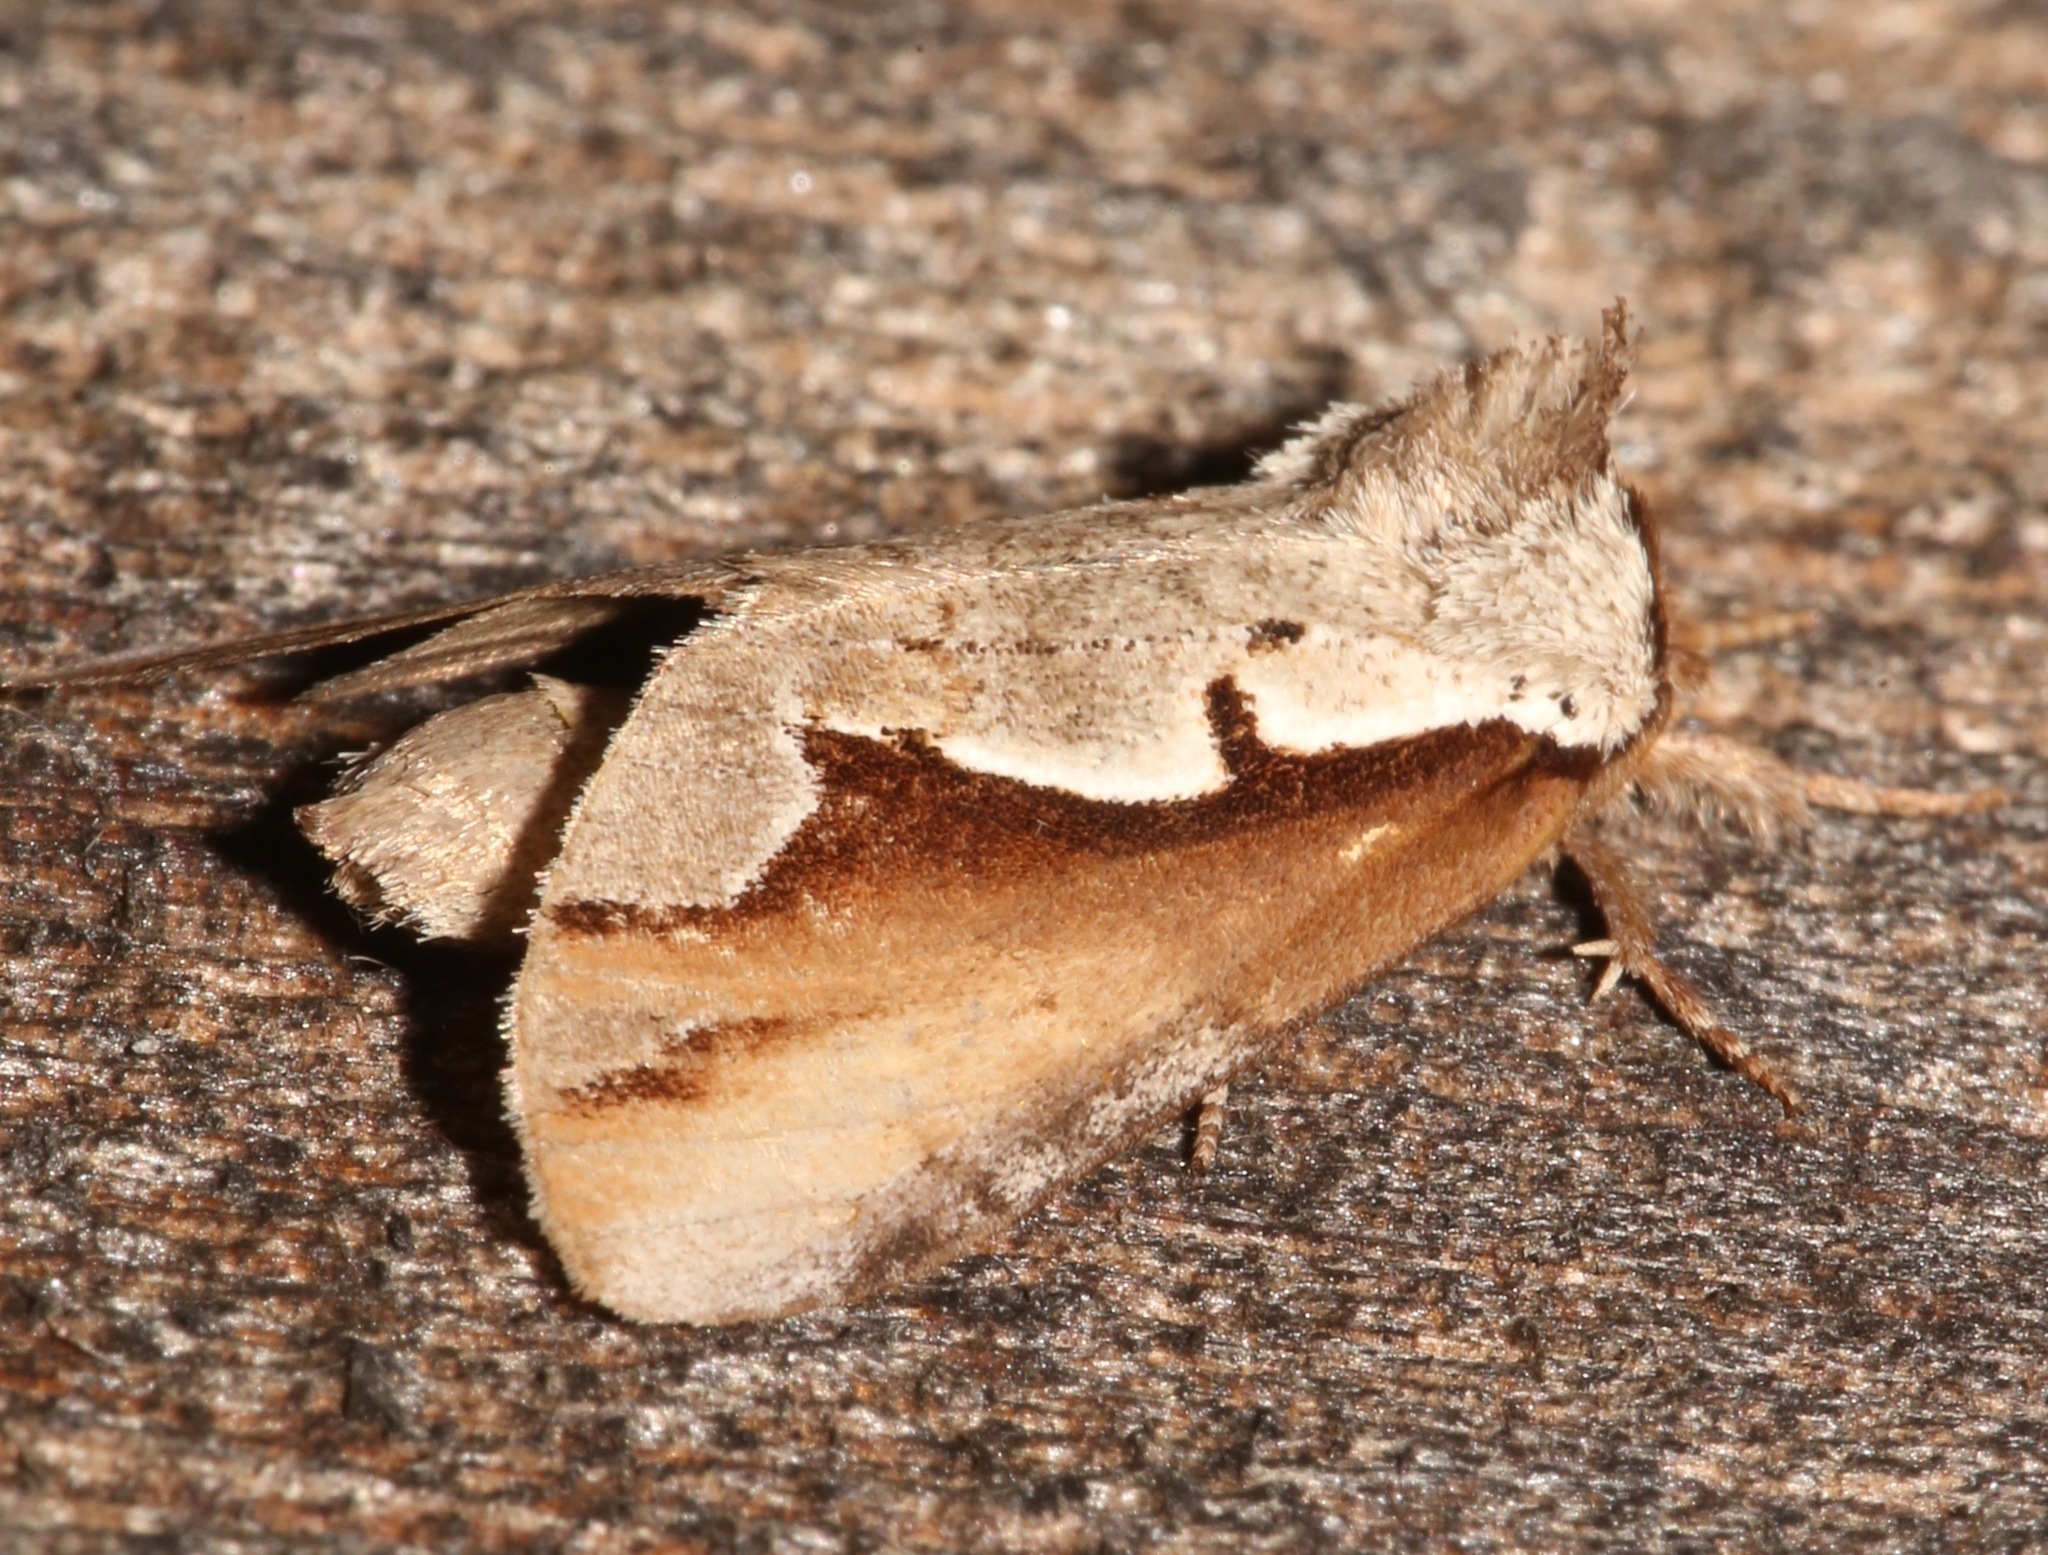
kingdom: Animalia
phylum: Arthropoda
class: Insecta
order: Lepidoptera
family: Notodontidae
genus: Nerice
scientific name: Nerice bidentata
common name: Double-toothed prominent
